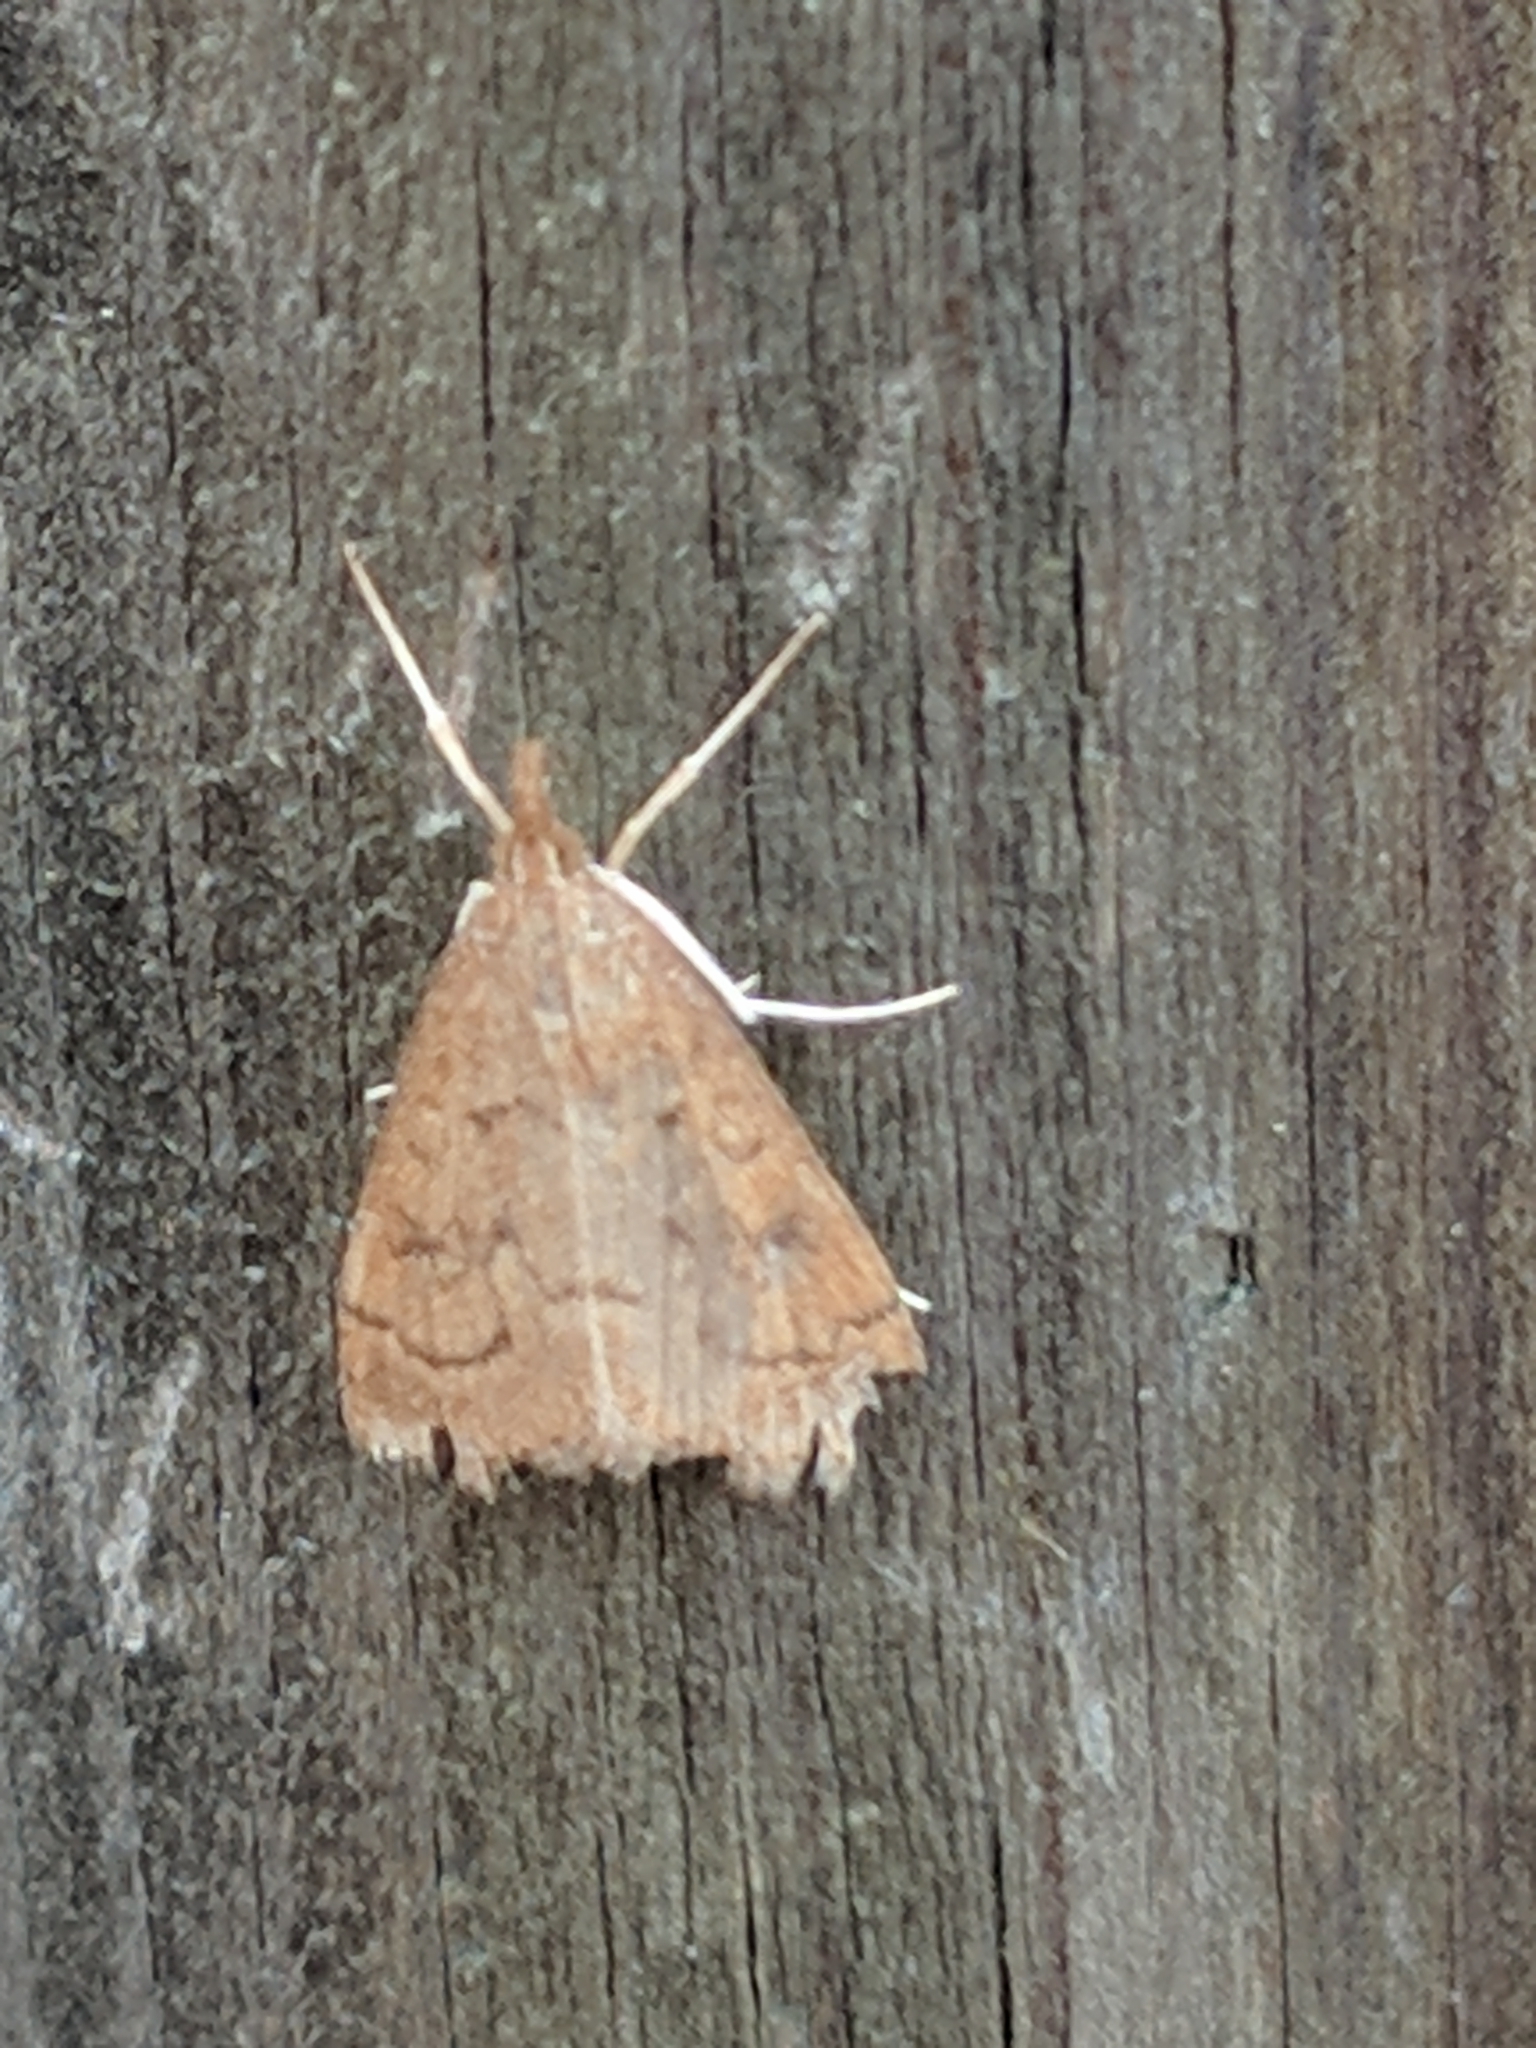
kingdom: Animalia
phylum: Arthropoda
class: Insecta
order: Lepidoptera
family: Crambidae
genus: Udea
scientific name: Udea rubigalis
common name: Celery leaftier moth
